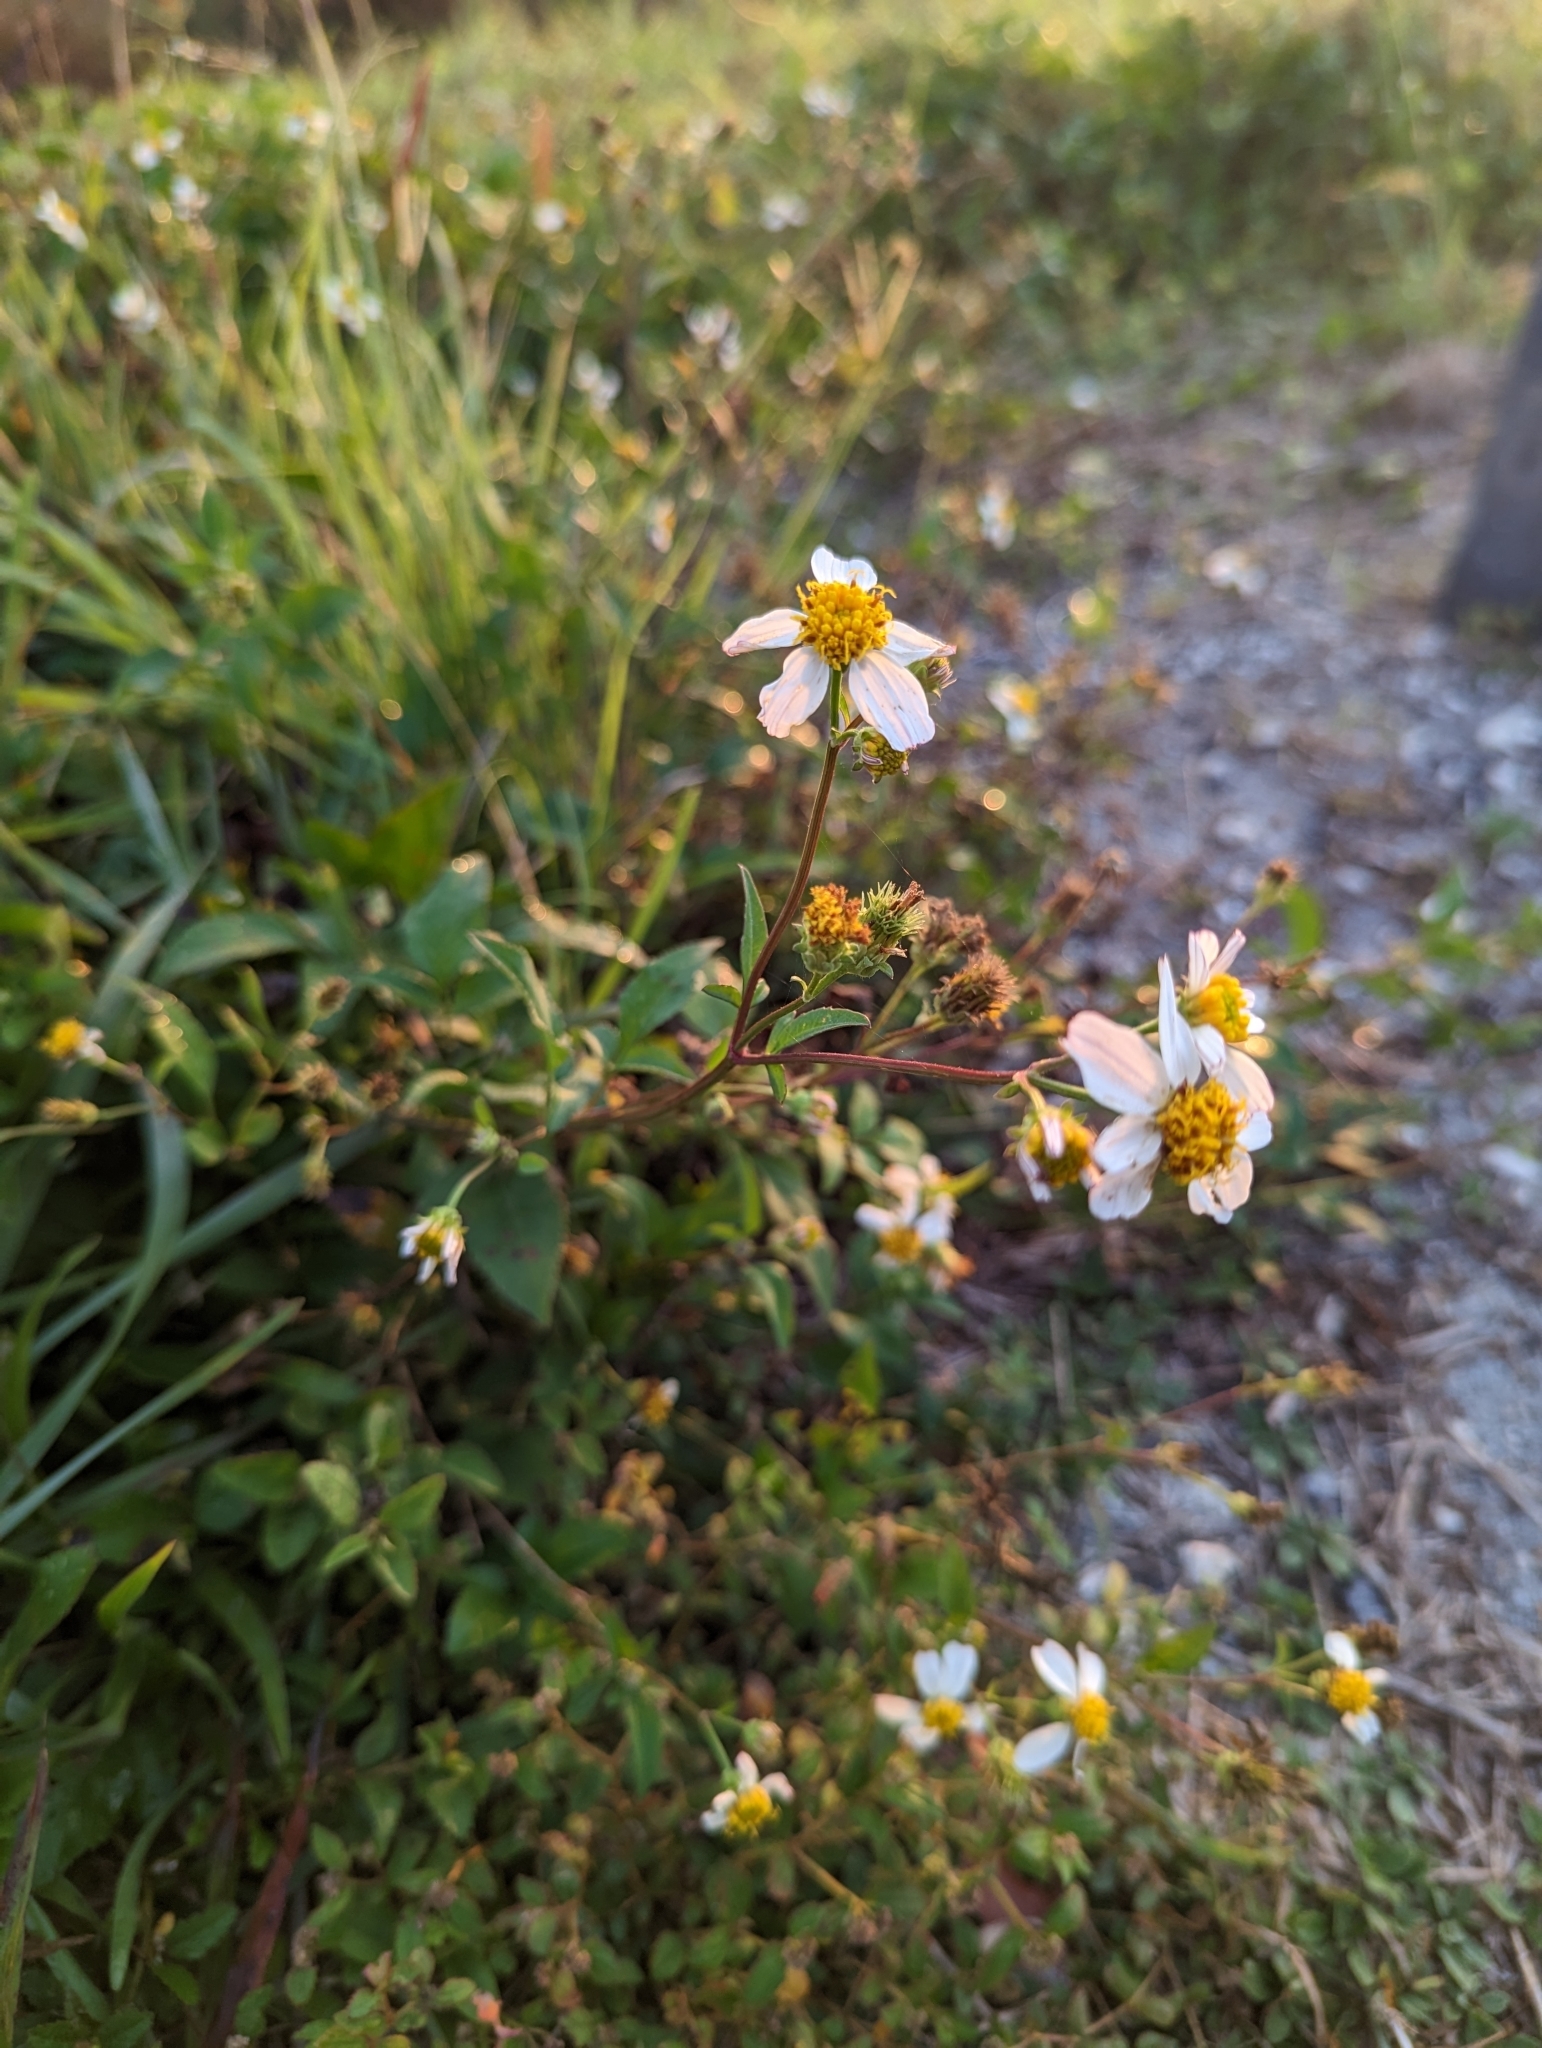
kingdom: Plantae
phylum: Tracheophyta
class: Magnoliopsida
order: Asterales
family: Asteraceae
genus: Bidens
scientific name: Bidens alba
